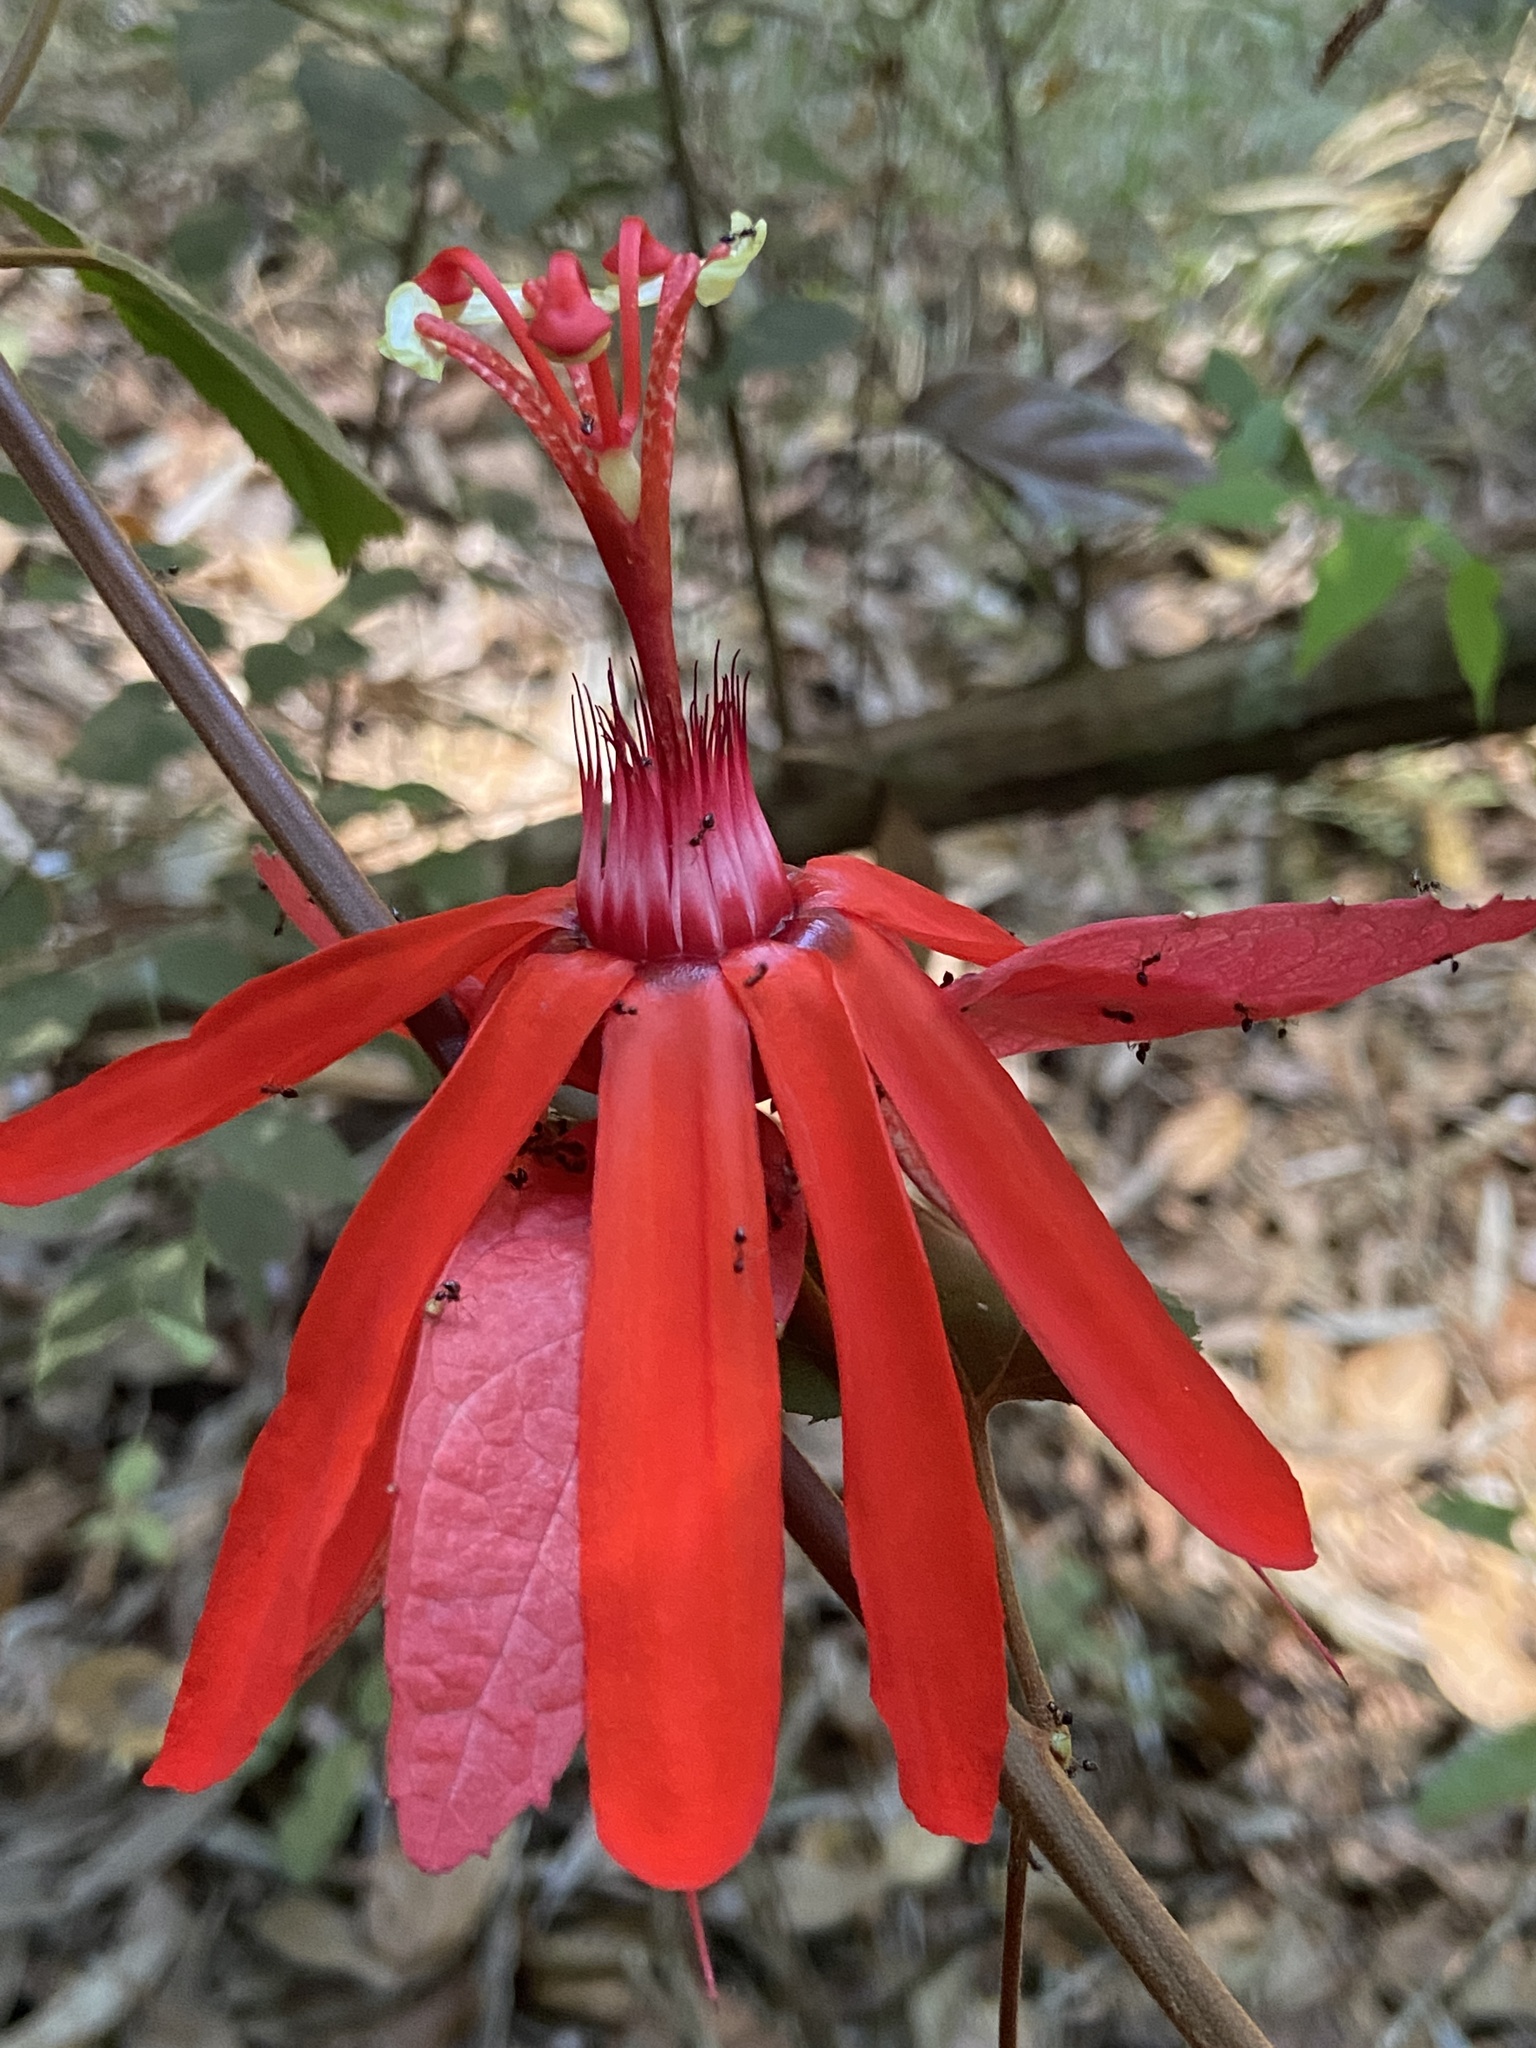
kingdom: Plantae
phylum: Tracheophyta
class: Magnoliopsida
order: Malpighiales
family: Passifloraceae
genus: Passiflora
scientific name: Passiflora araujoi
